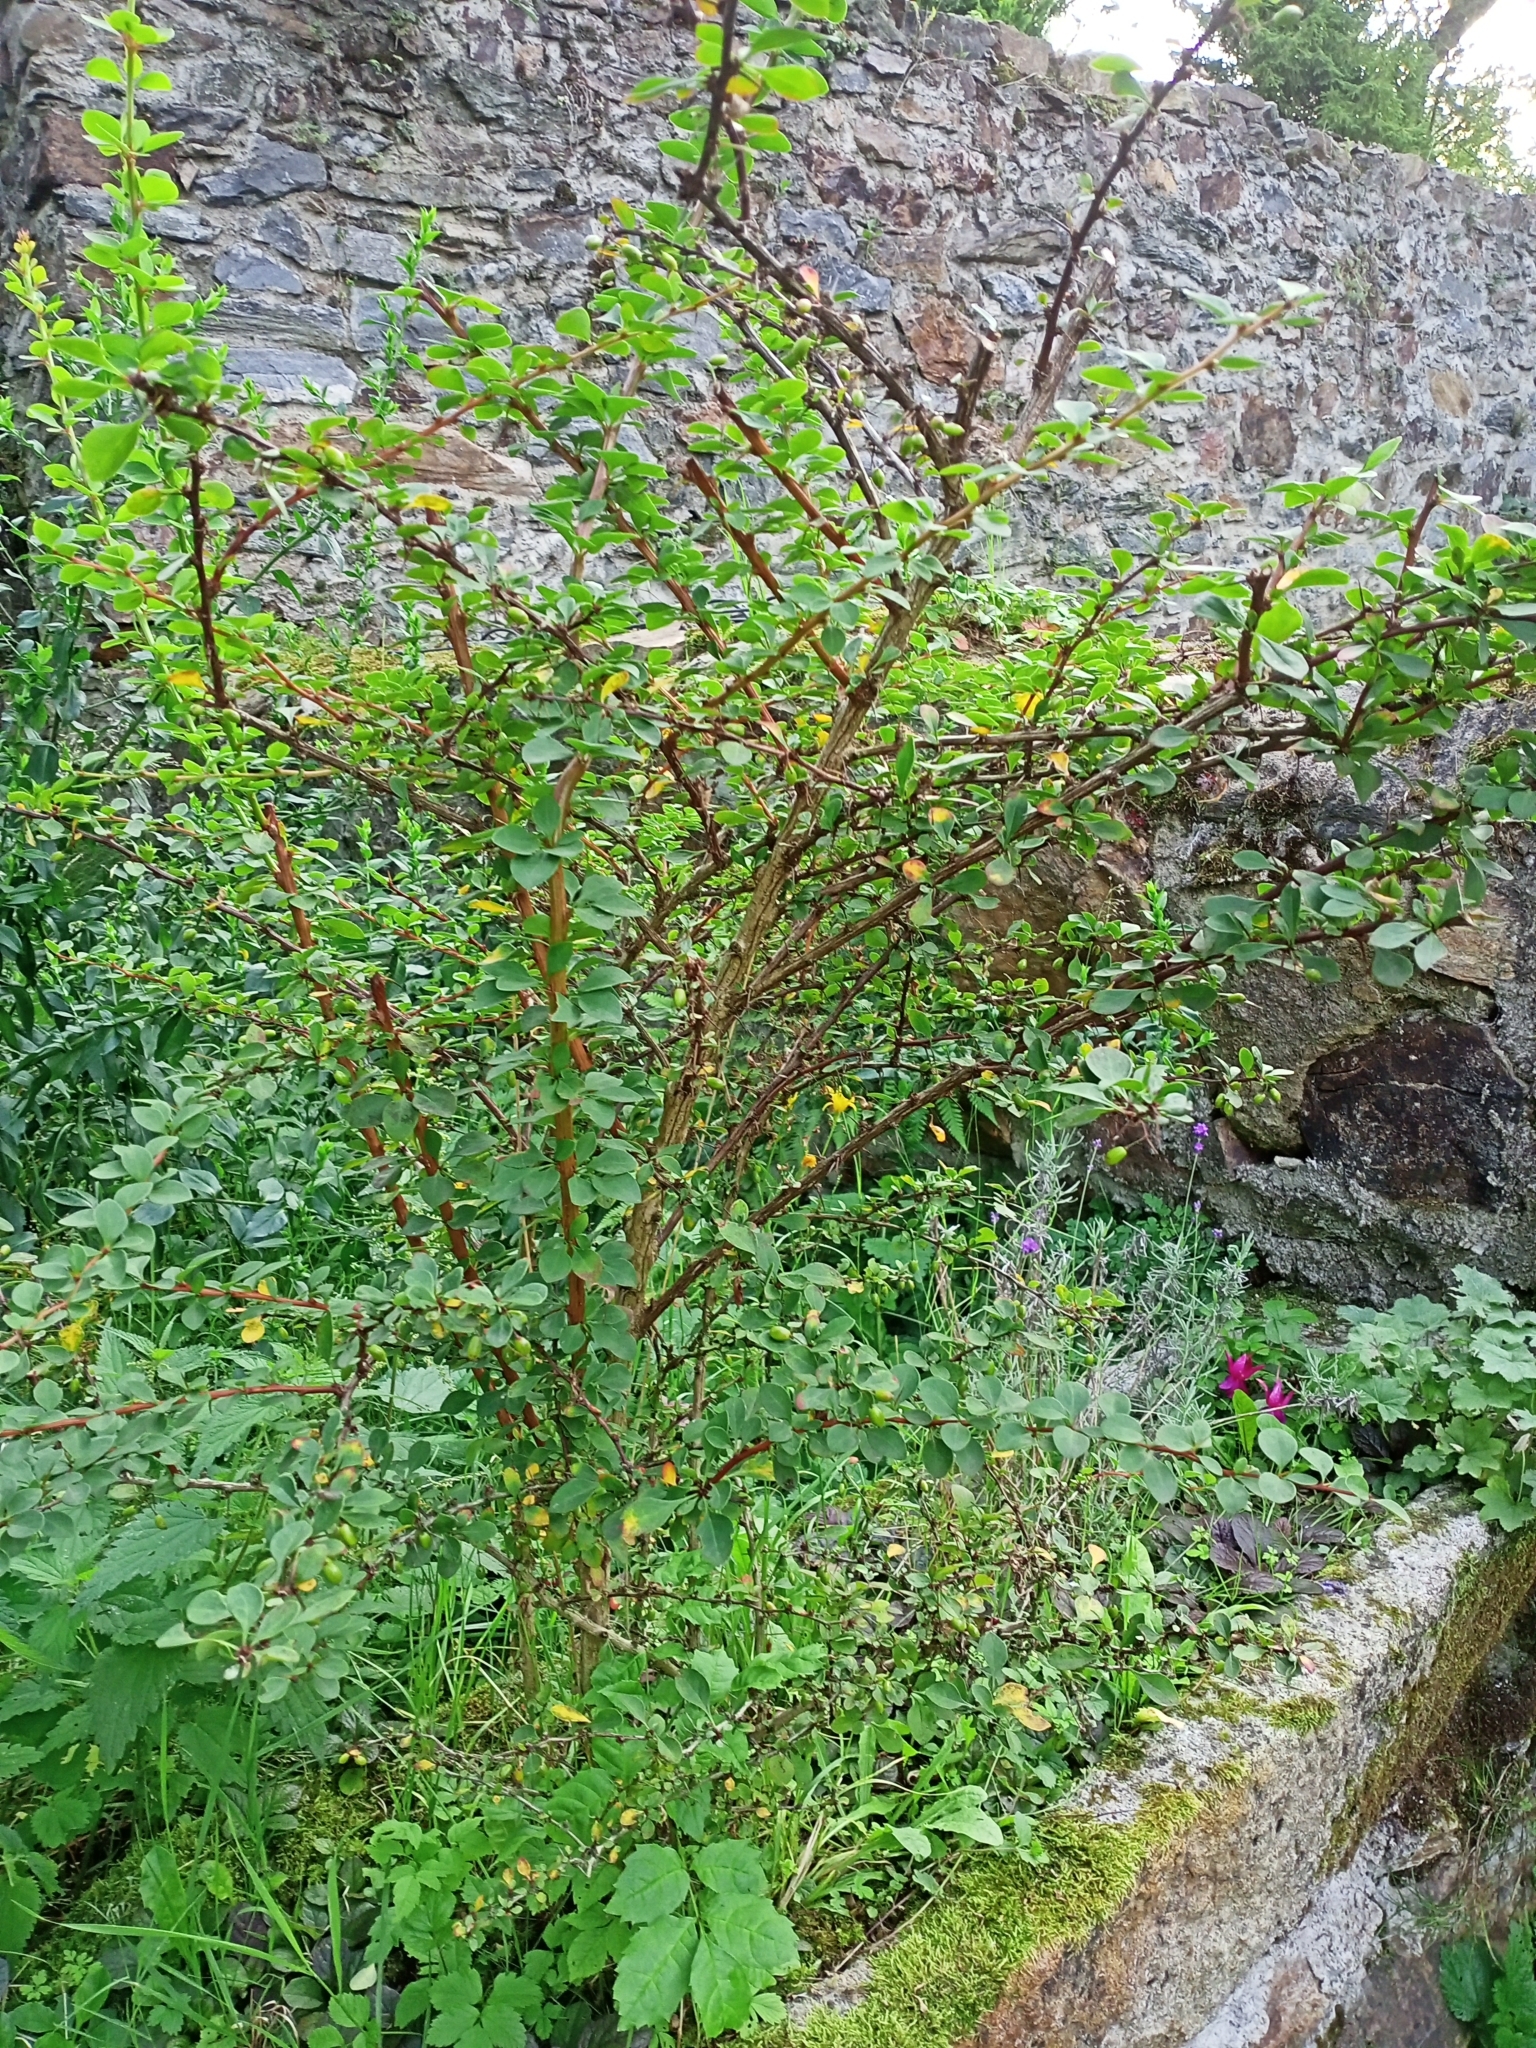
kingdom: Plantae
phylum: Tracheophyta
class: Magnoliopsida
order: Ranunculales
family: Berberidaceae
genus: Berberis
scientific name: Berberis thunbergii
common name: Japanese barberry
